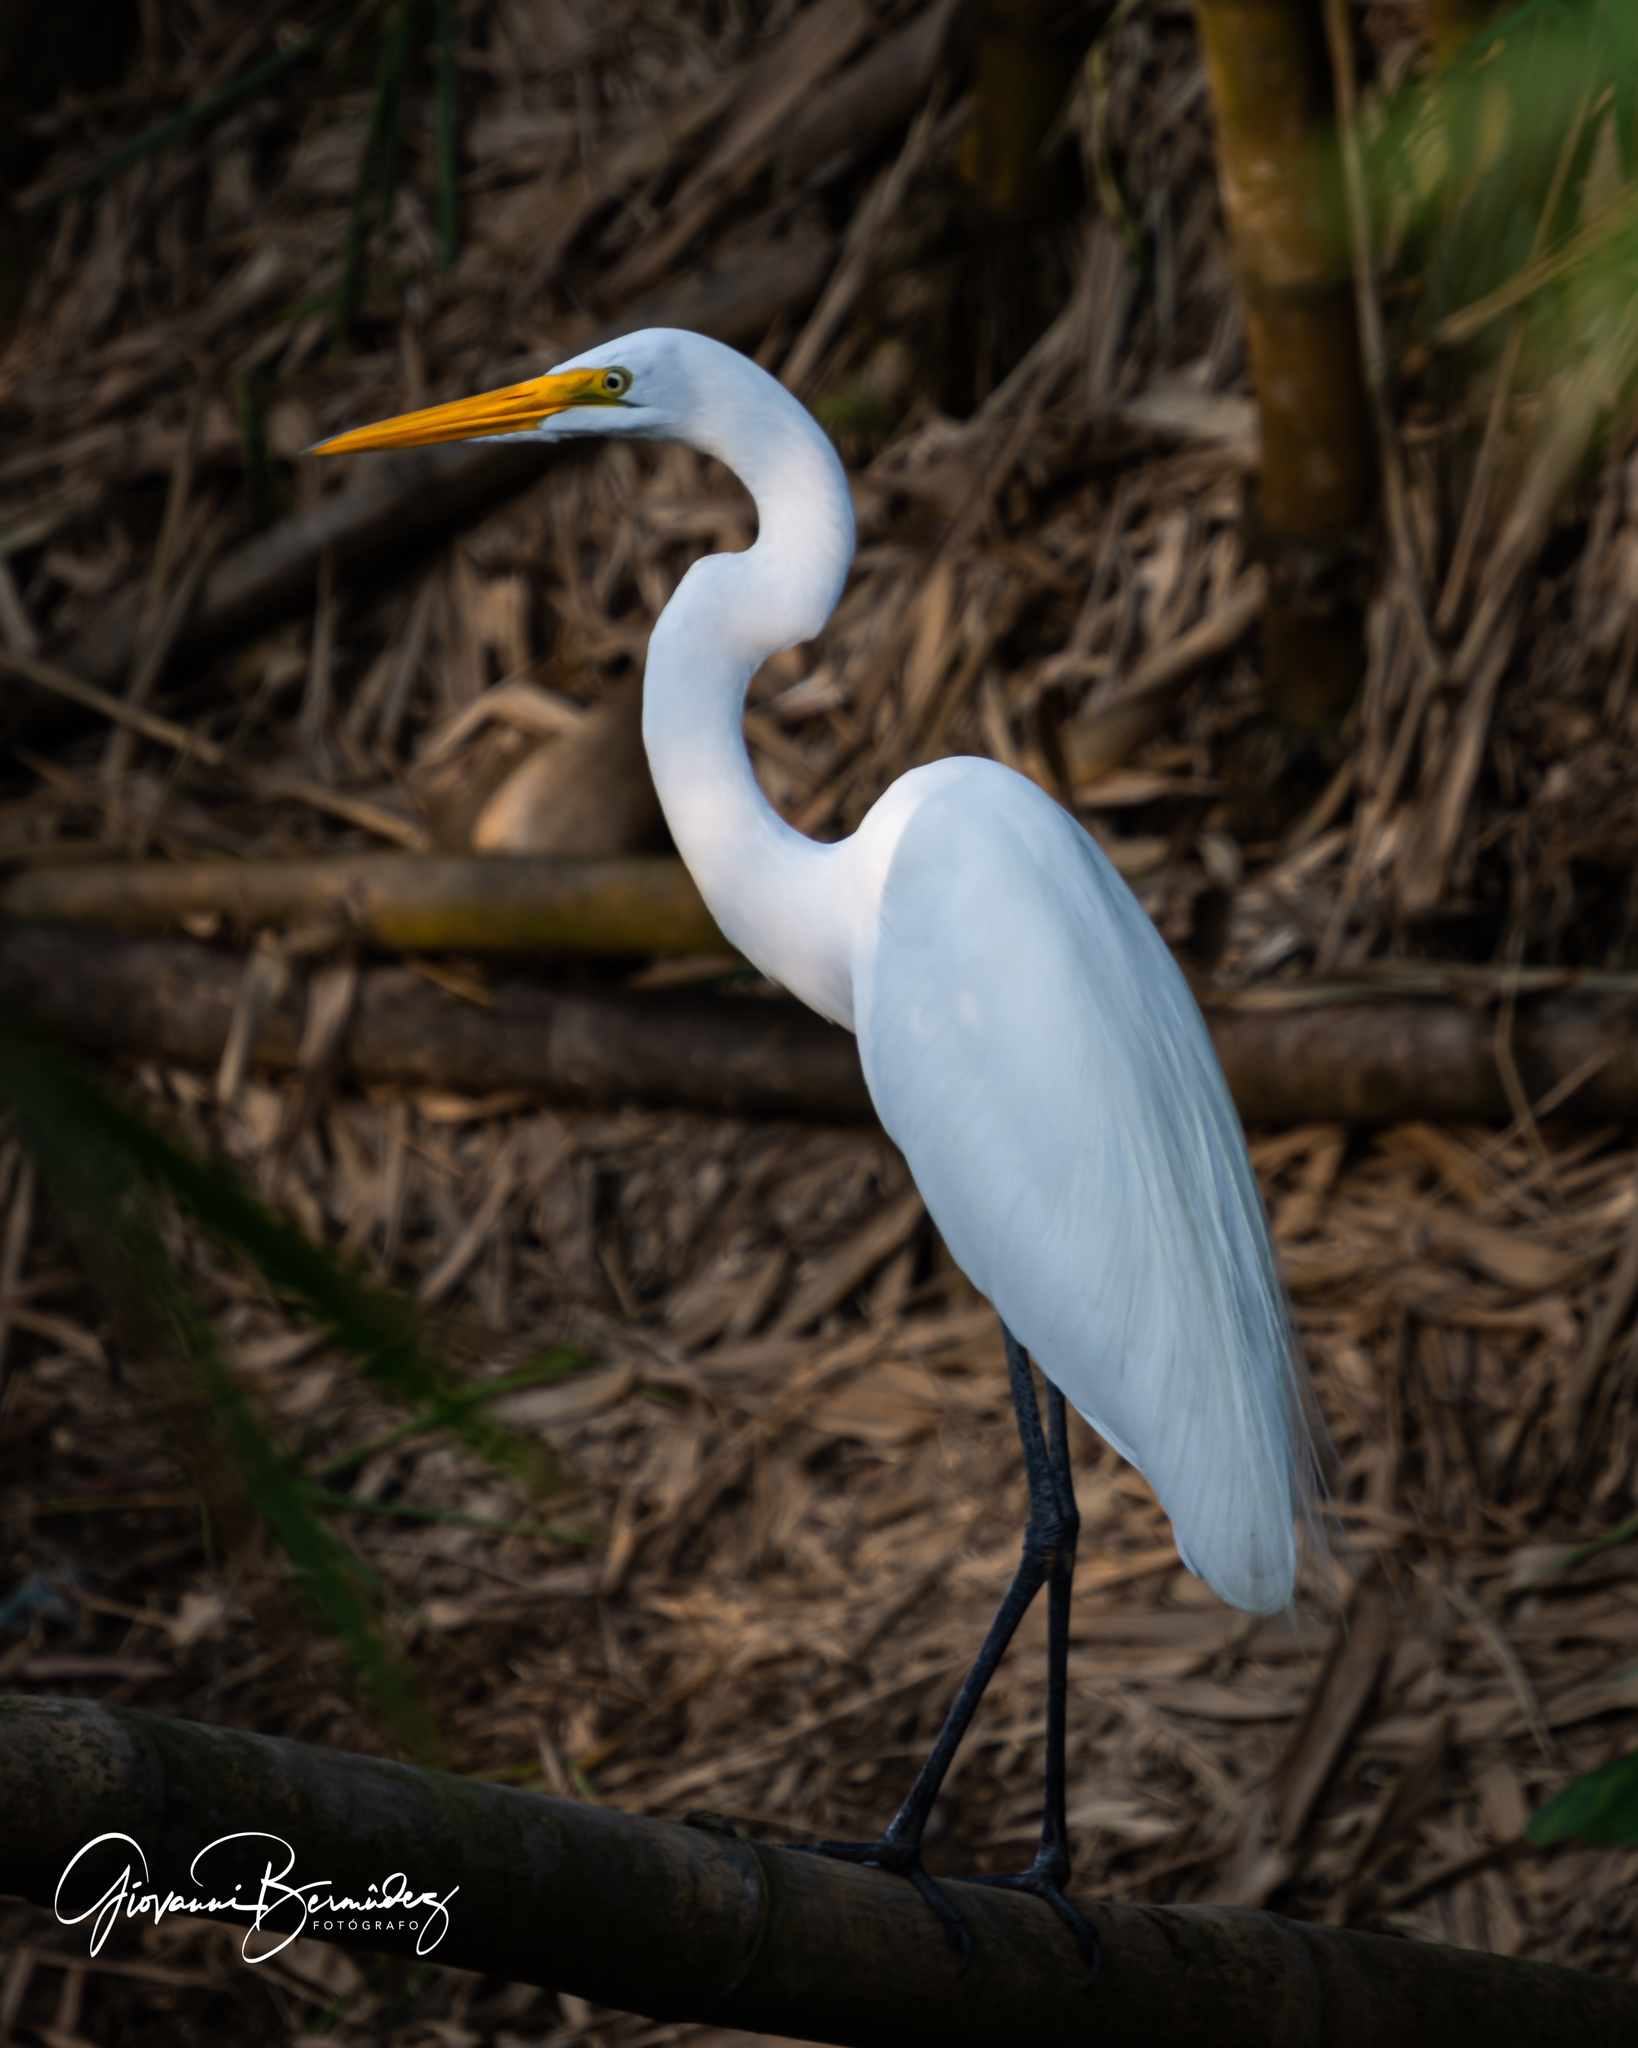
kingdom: Animalia
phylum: Chordata
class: Aves
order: Pelecaniformes
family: Ardeidae
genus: Ardea
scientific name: Ardea alba
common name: Great egret
